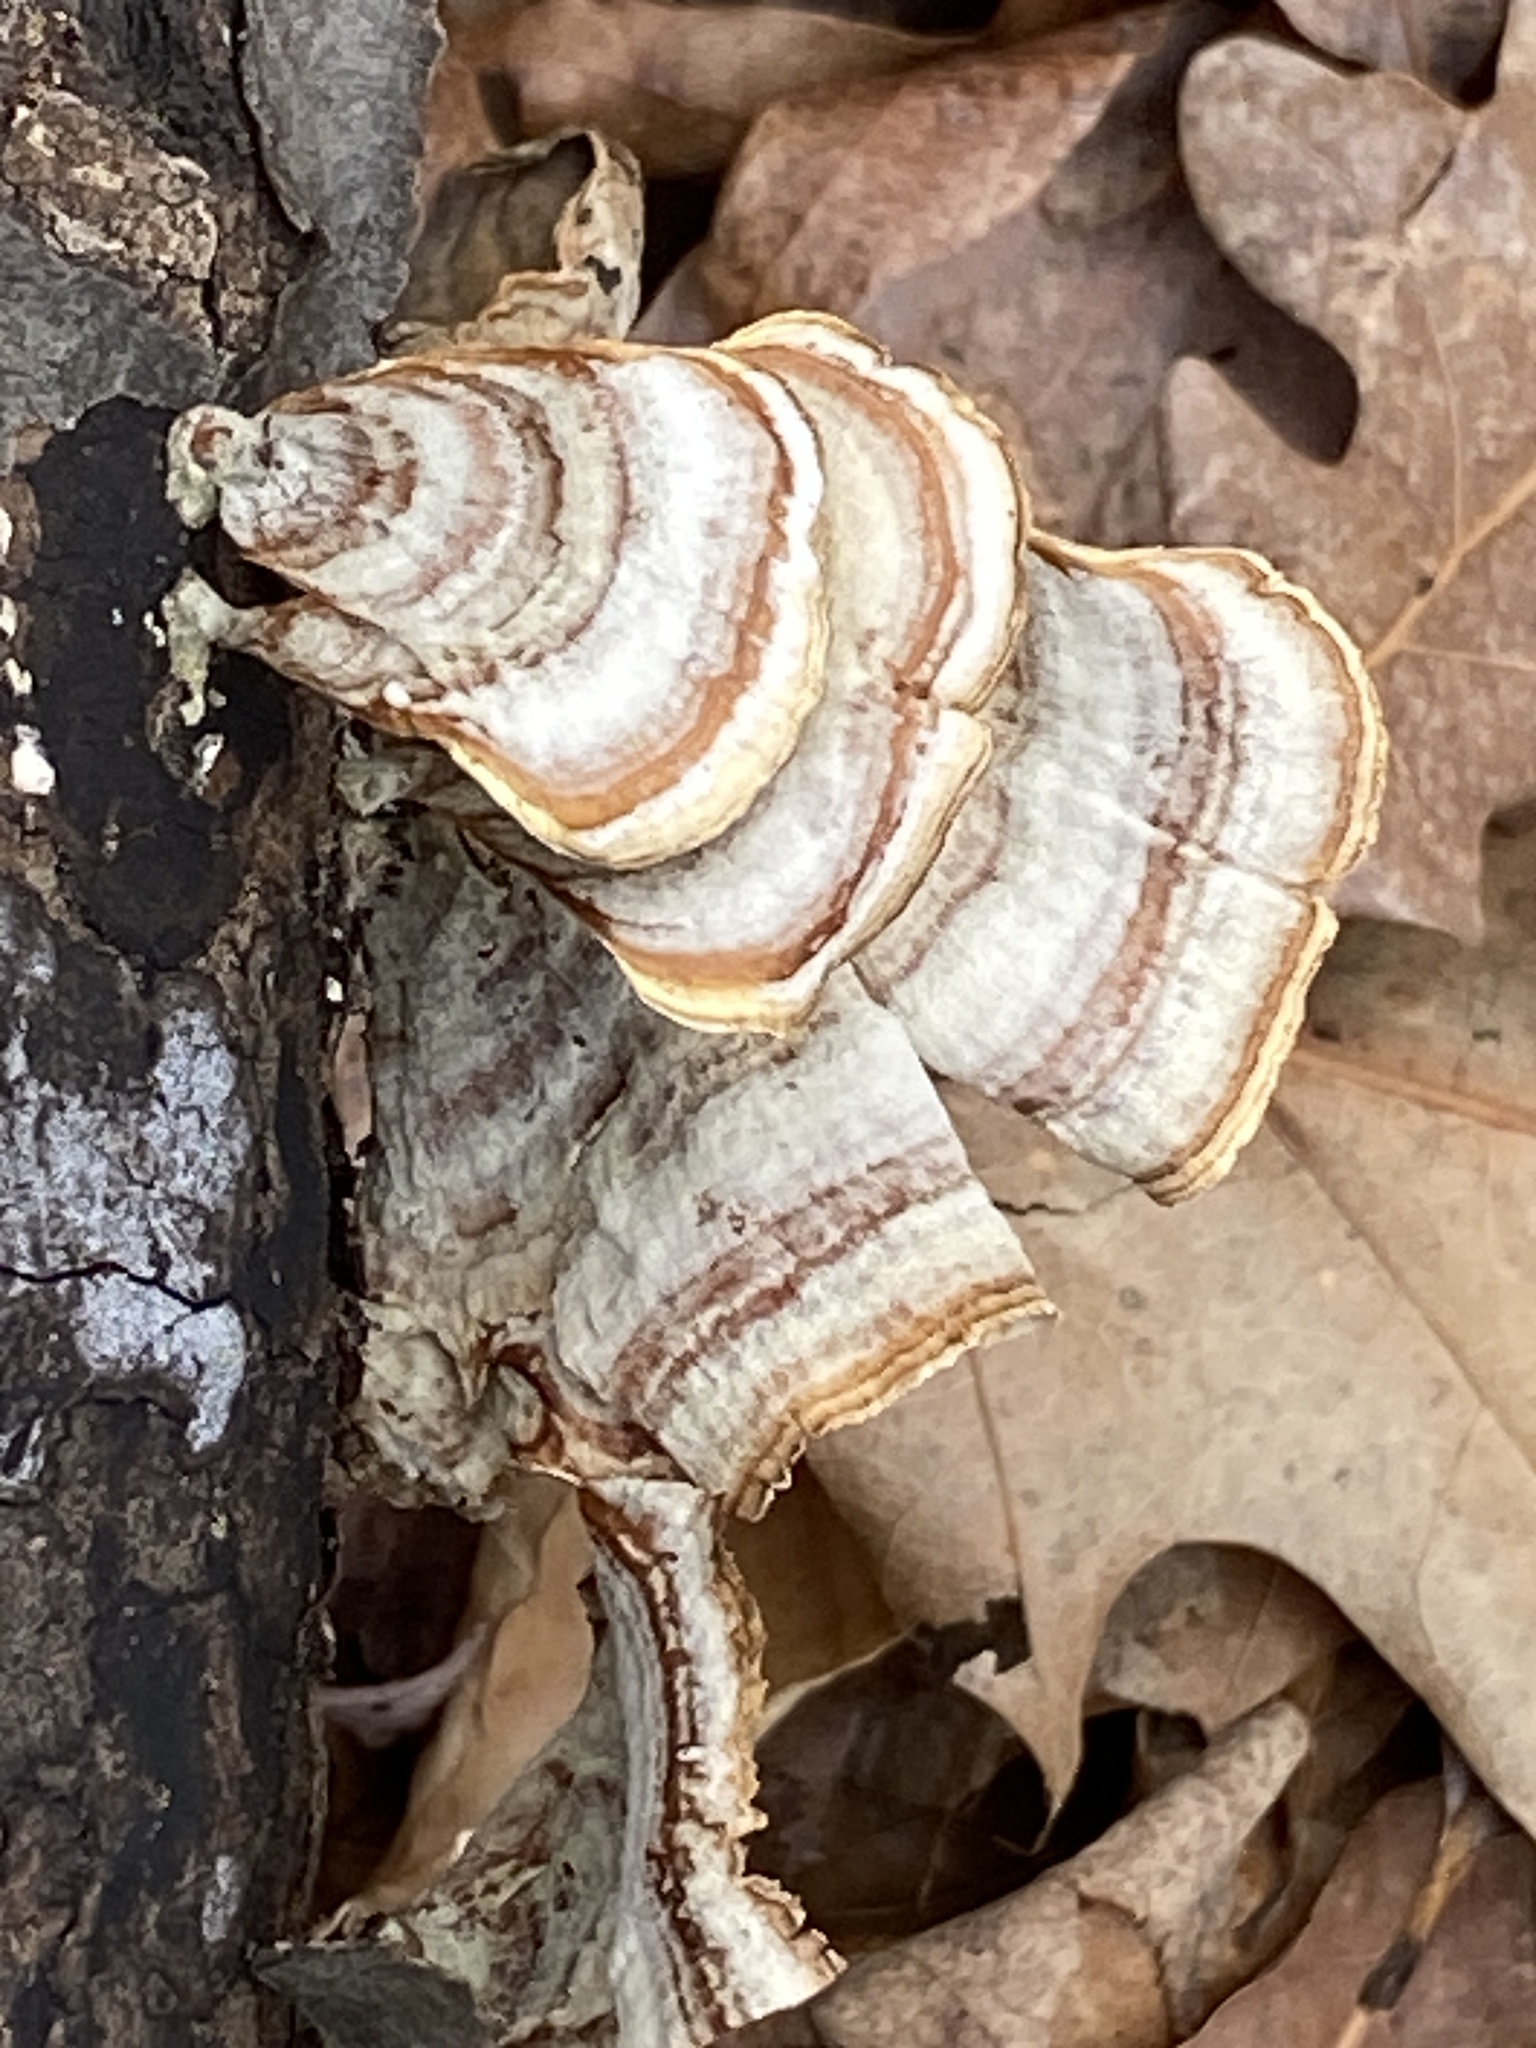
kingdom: Fungi
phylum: Basidiomycota
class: Agaricomycetes
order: Russulales
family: Stereaceae
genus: Stereum
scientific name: Stereum lobatum
